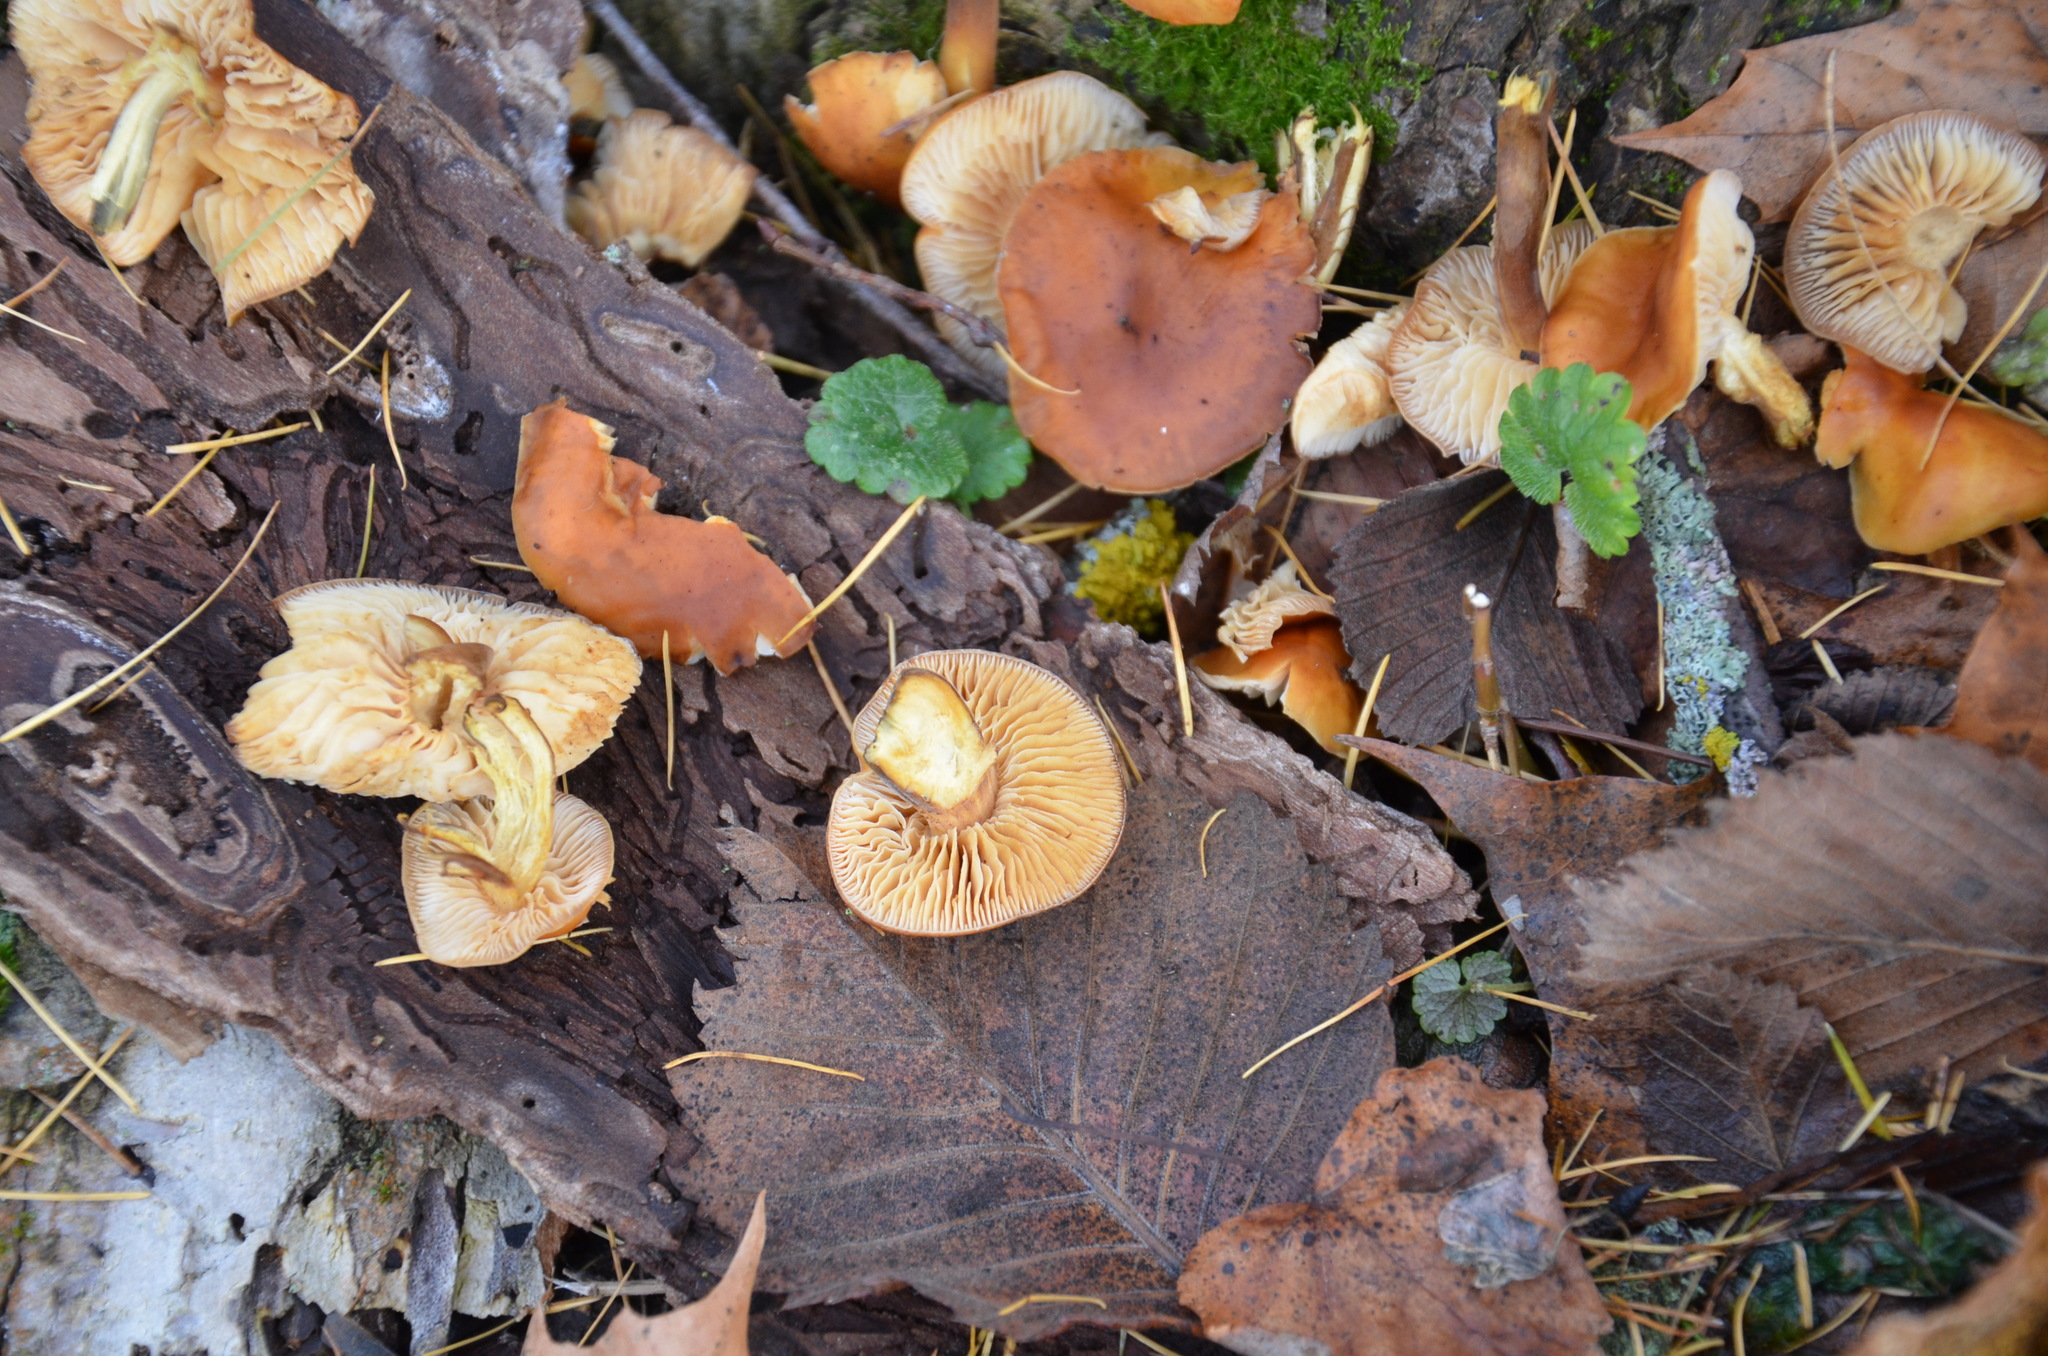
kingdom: Fungi
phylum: Basidiomycota
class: Agaricomycetes
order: Agaricales
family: Physalacriaceae
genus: Flammulina
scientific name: Flammulina
